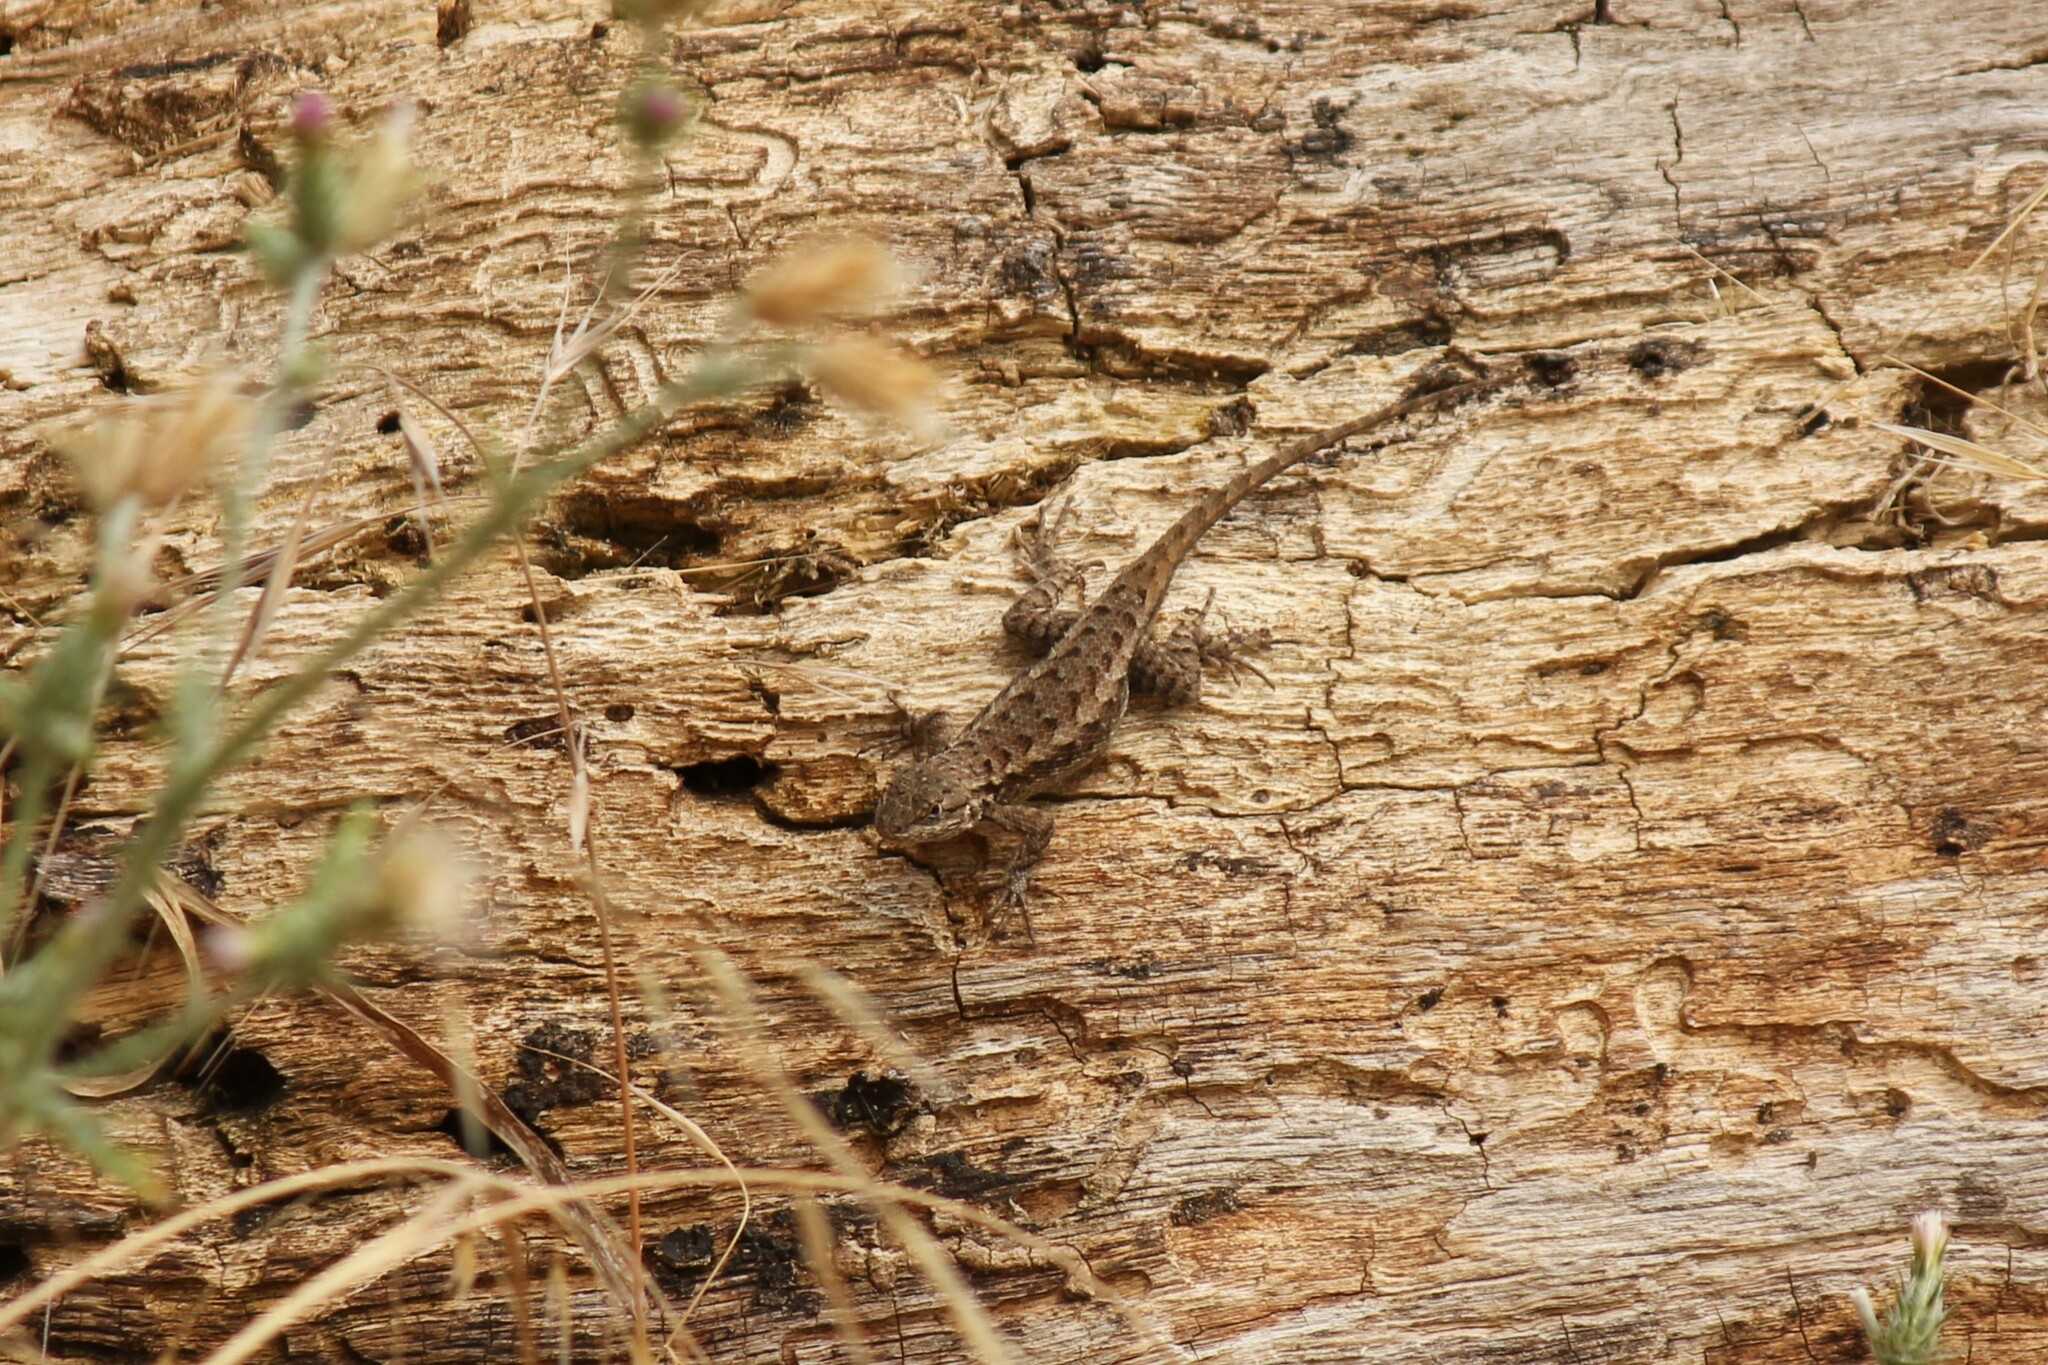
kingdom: Animalia
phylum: Chordata
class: Squamata
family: Phrynosomatidae
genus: Sceloporus
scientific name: Sceloporus occidentalis
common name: Western fence lizard
